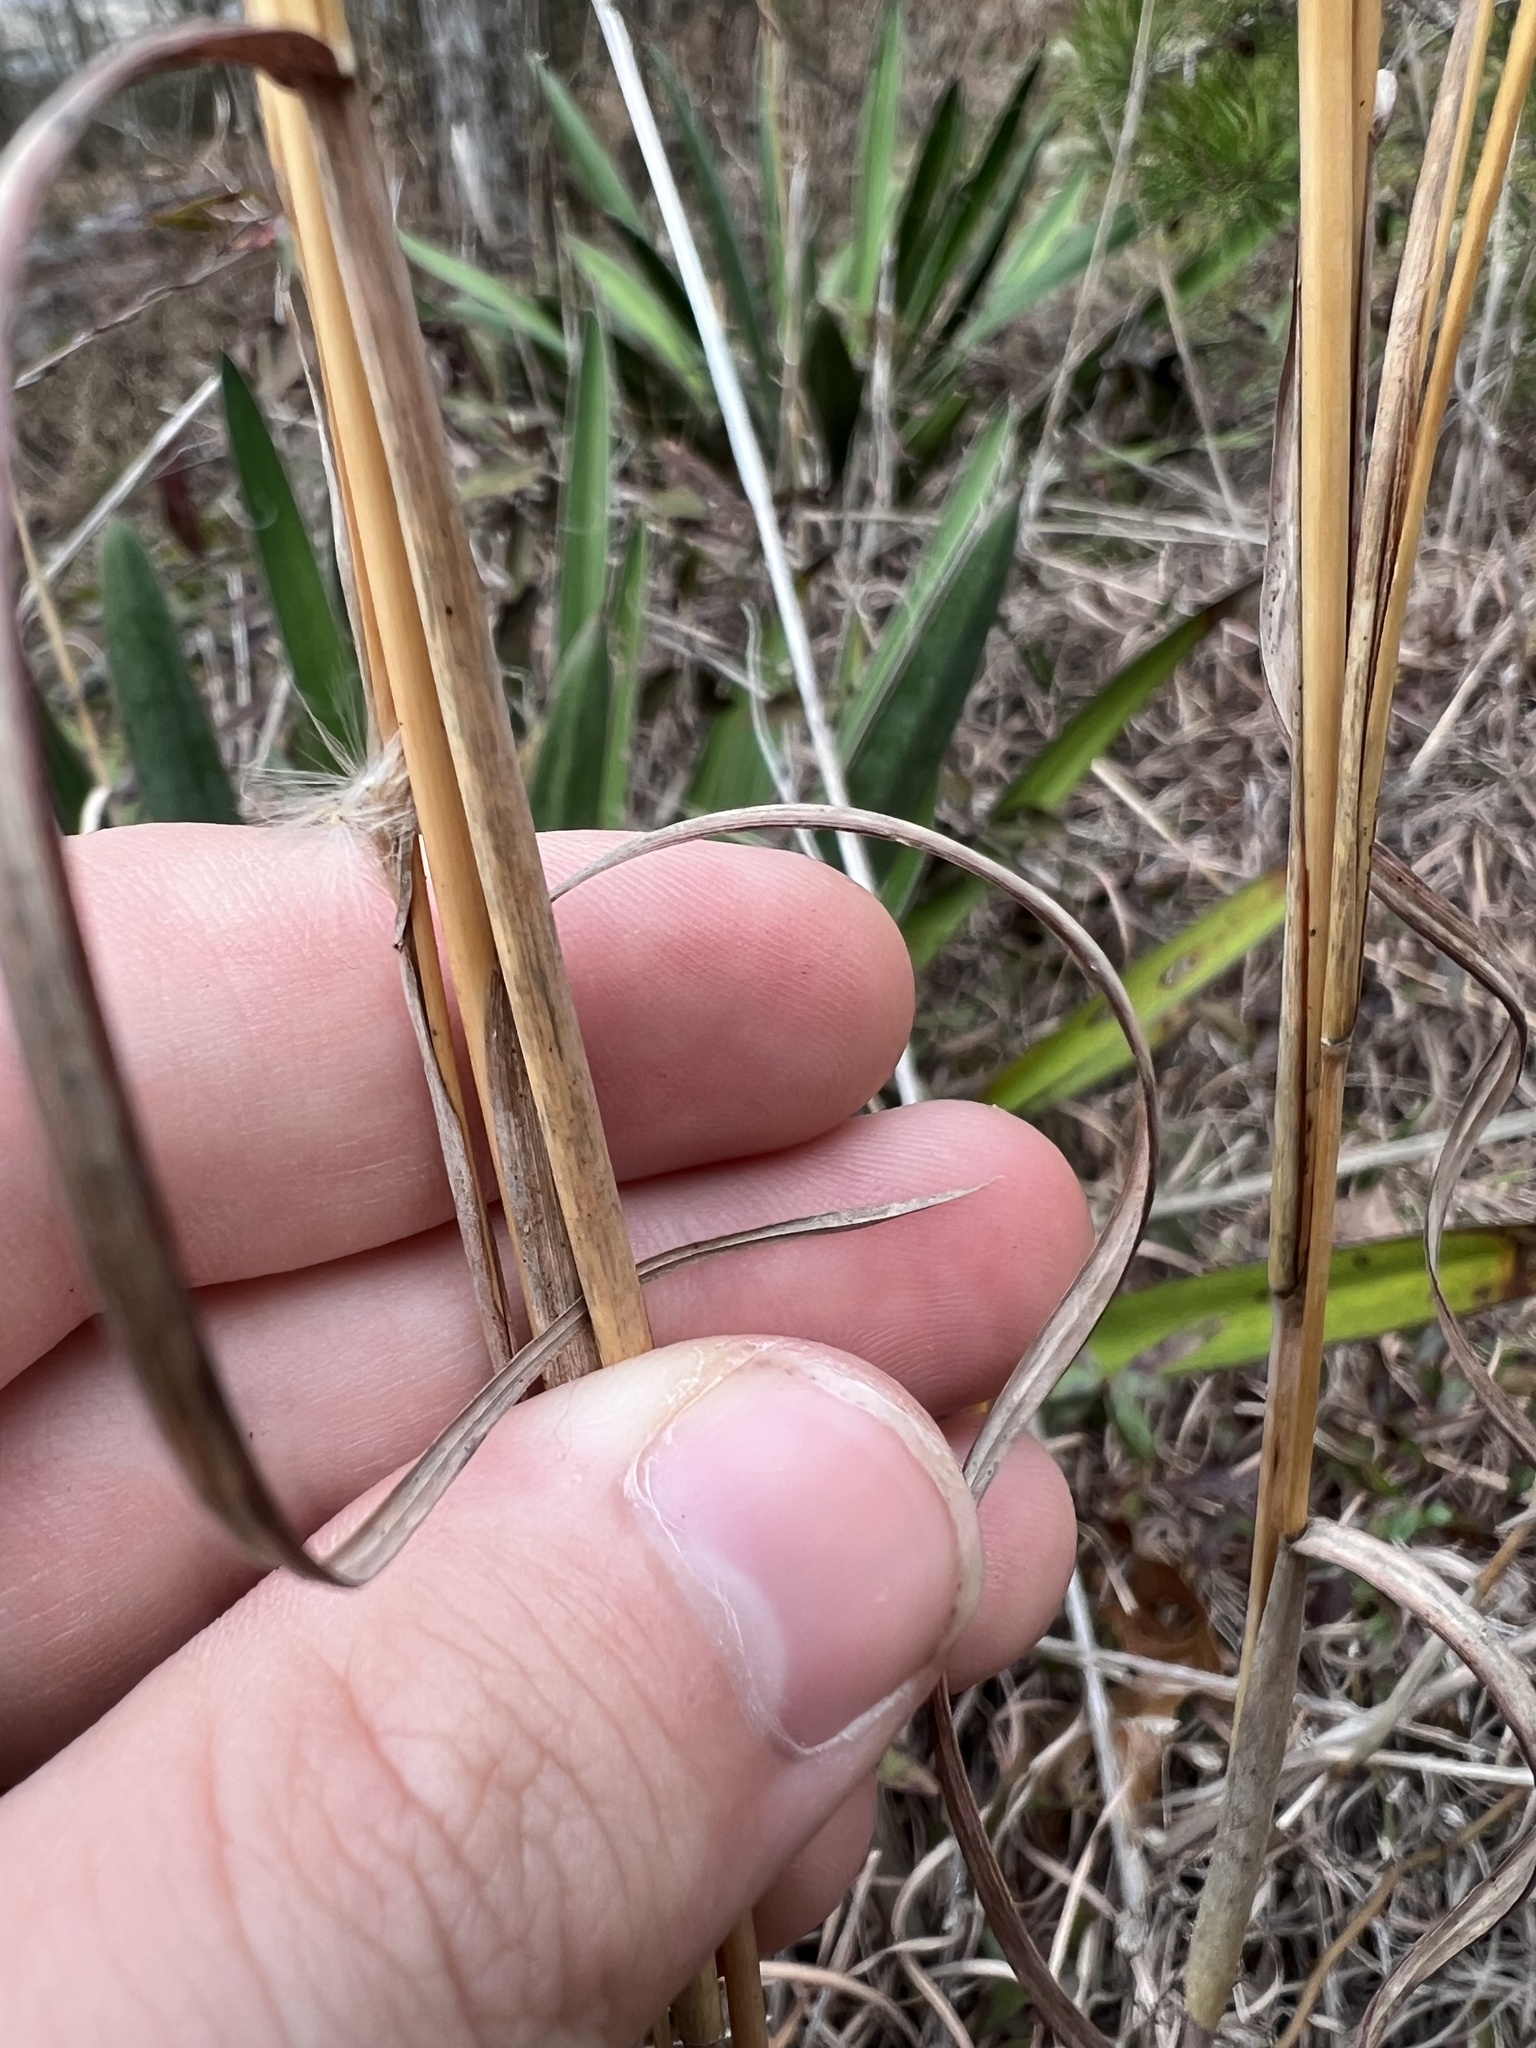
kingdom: Plantae
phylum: Tracheophyta
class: Liliopsida
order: Poales
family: Poaceae
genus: Andropogon
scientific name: Andropogon ternarius
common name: Split bluestem
